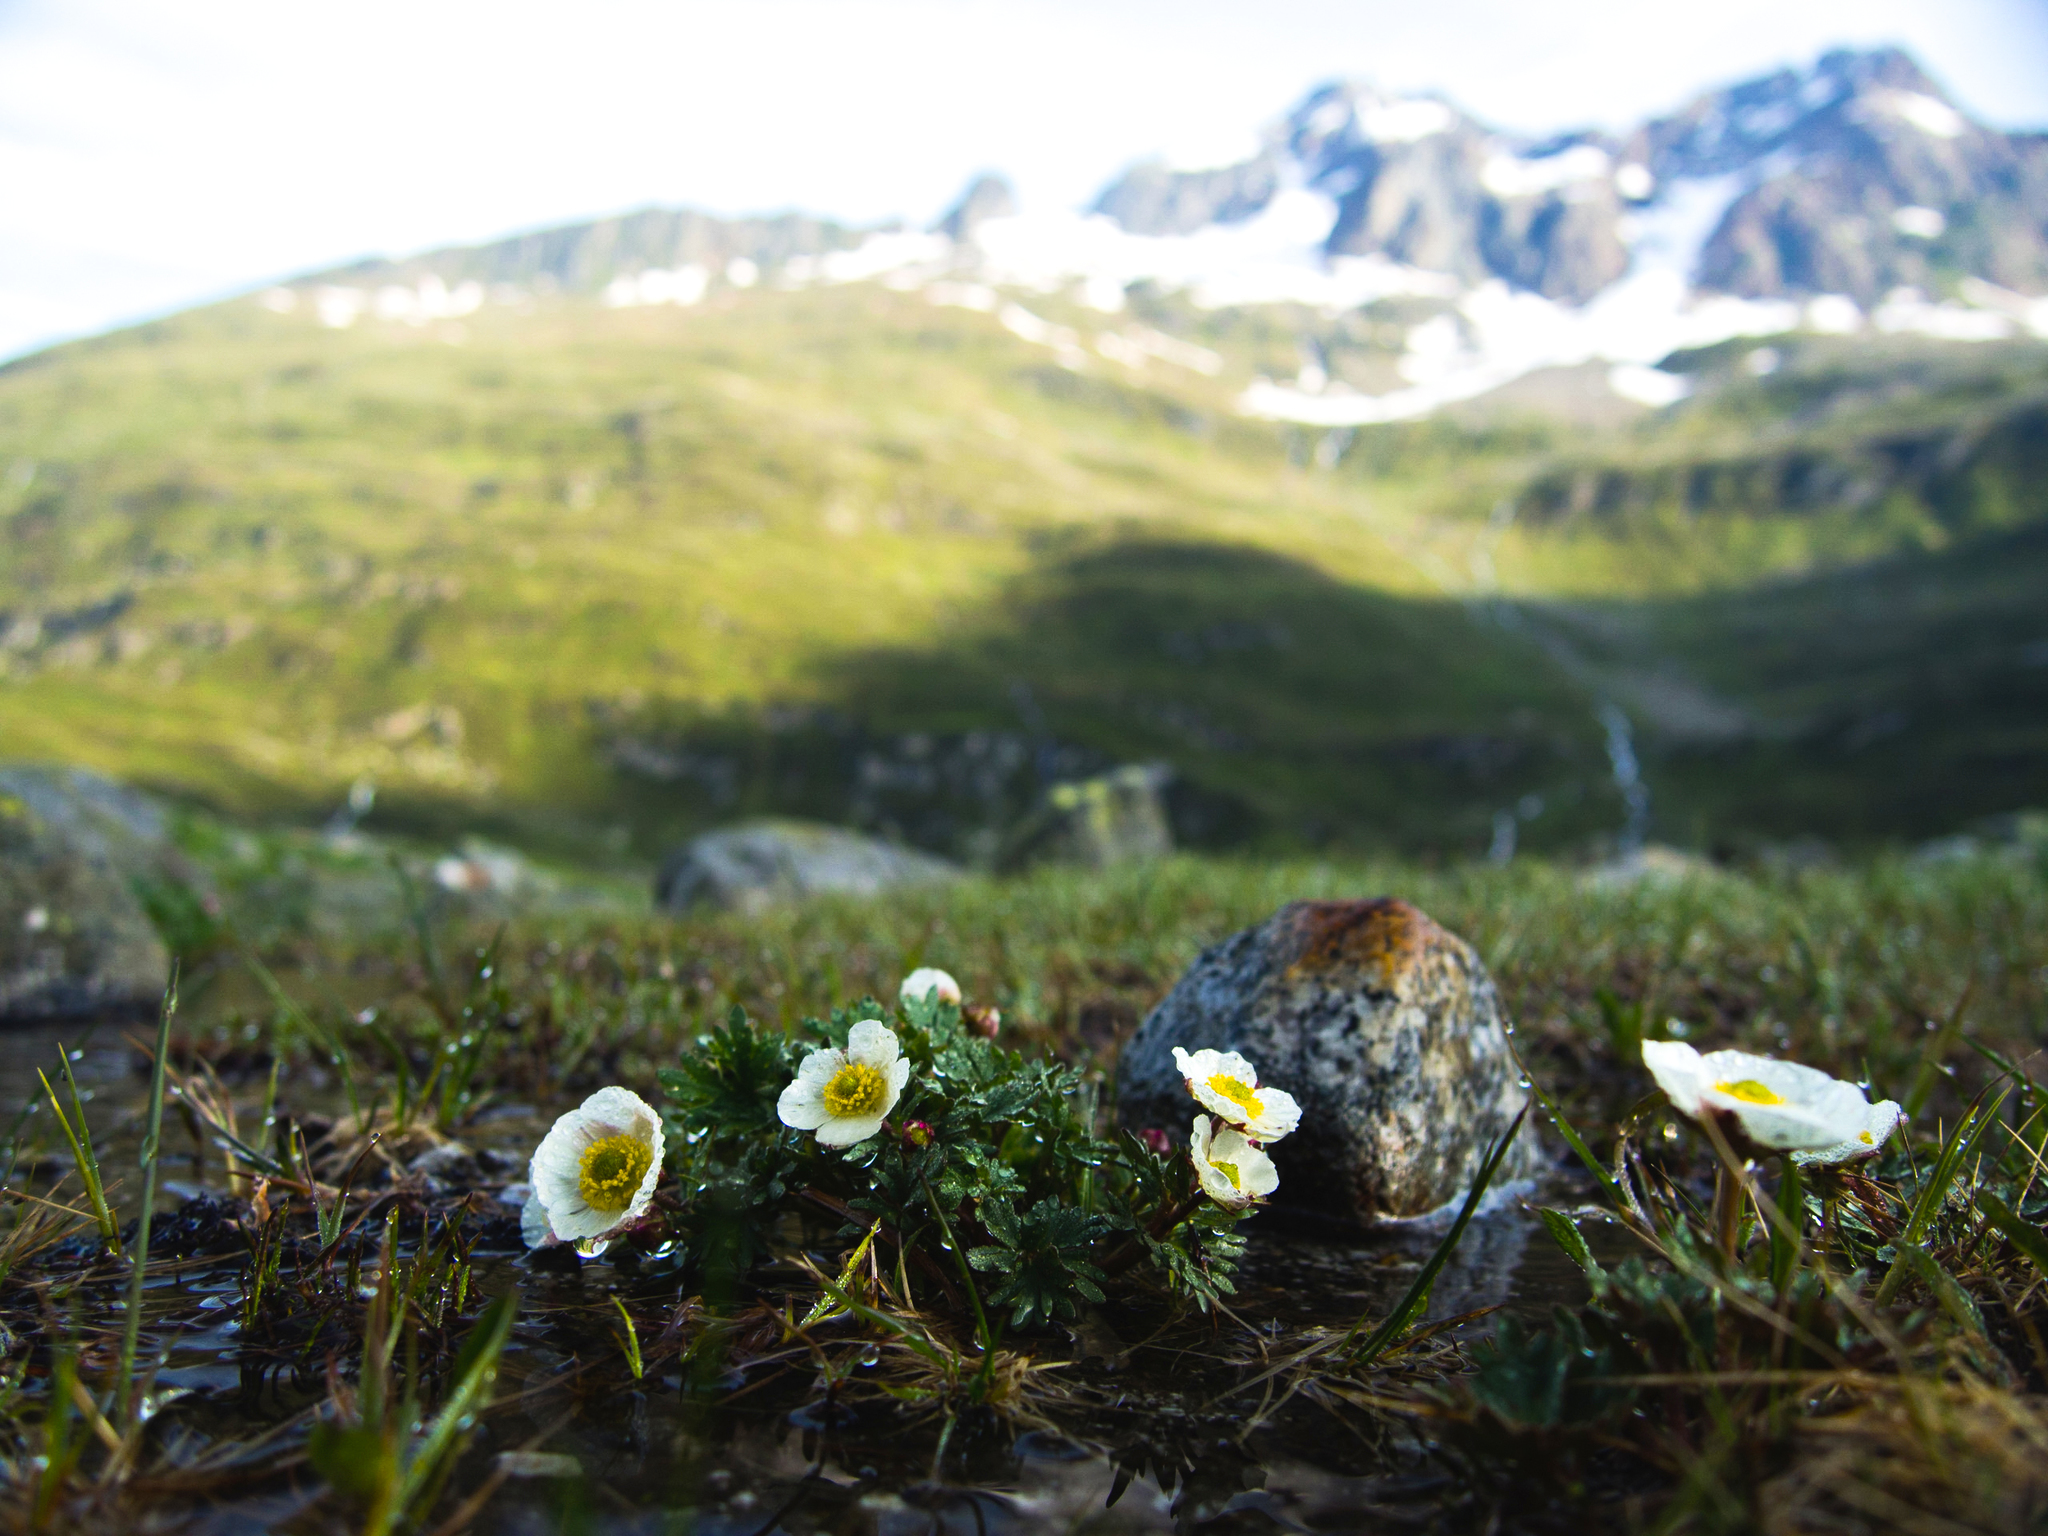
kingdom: Plantae
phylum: Tracheophyta
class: Magnoliopsida
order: Ranunculales
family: Ranunculaceae
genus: Ranunculus
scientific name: Ranunculus glacialis
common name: Glacier buttercup
